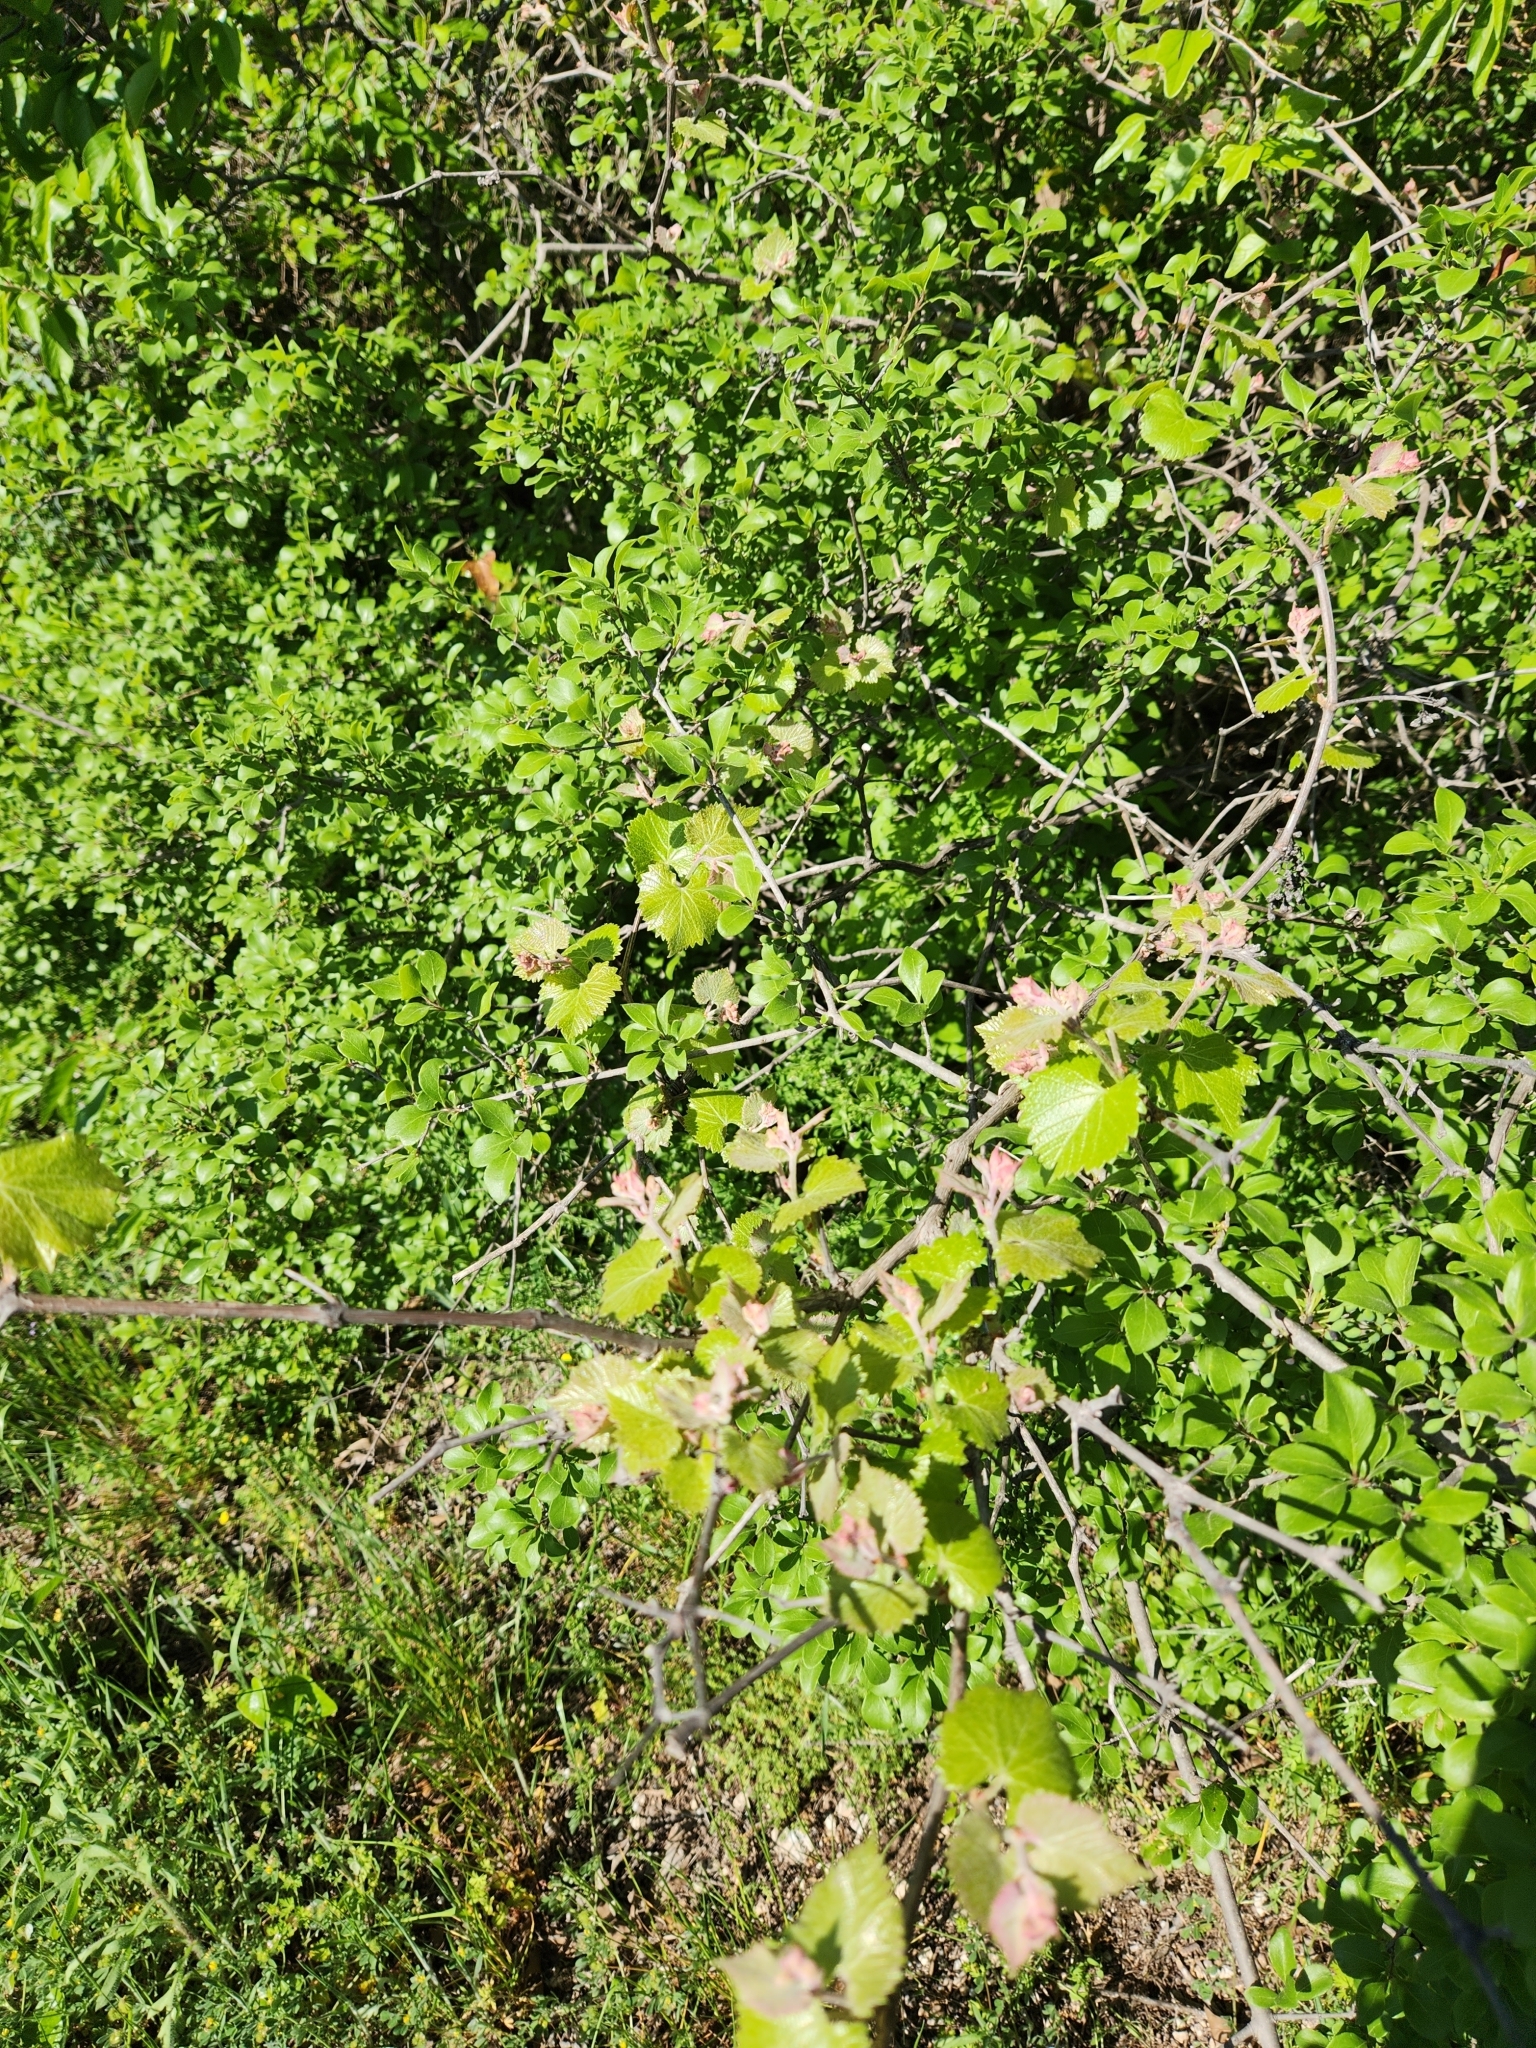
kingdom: Plantae
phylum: Tracheophyta
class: Magnoliopsida
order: Vitales
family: Vitaceae
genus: Vitis
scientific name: Vitis mustangensis
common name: Mustang grape
